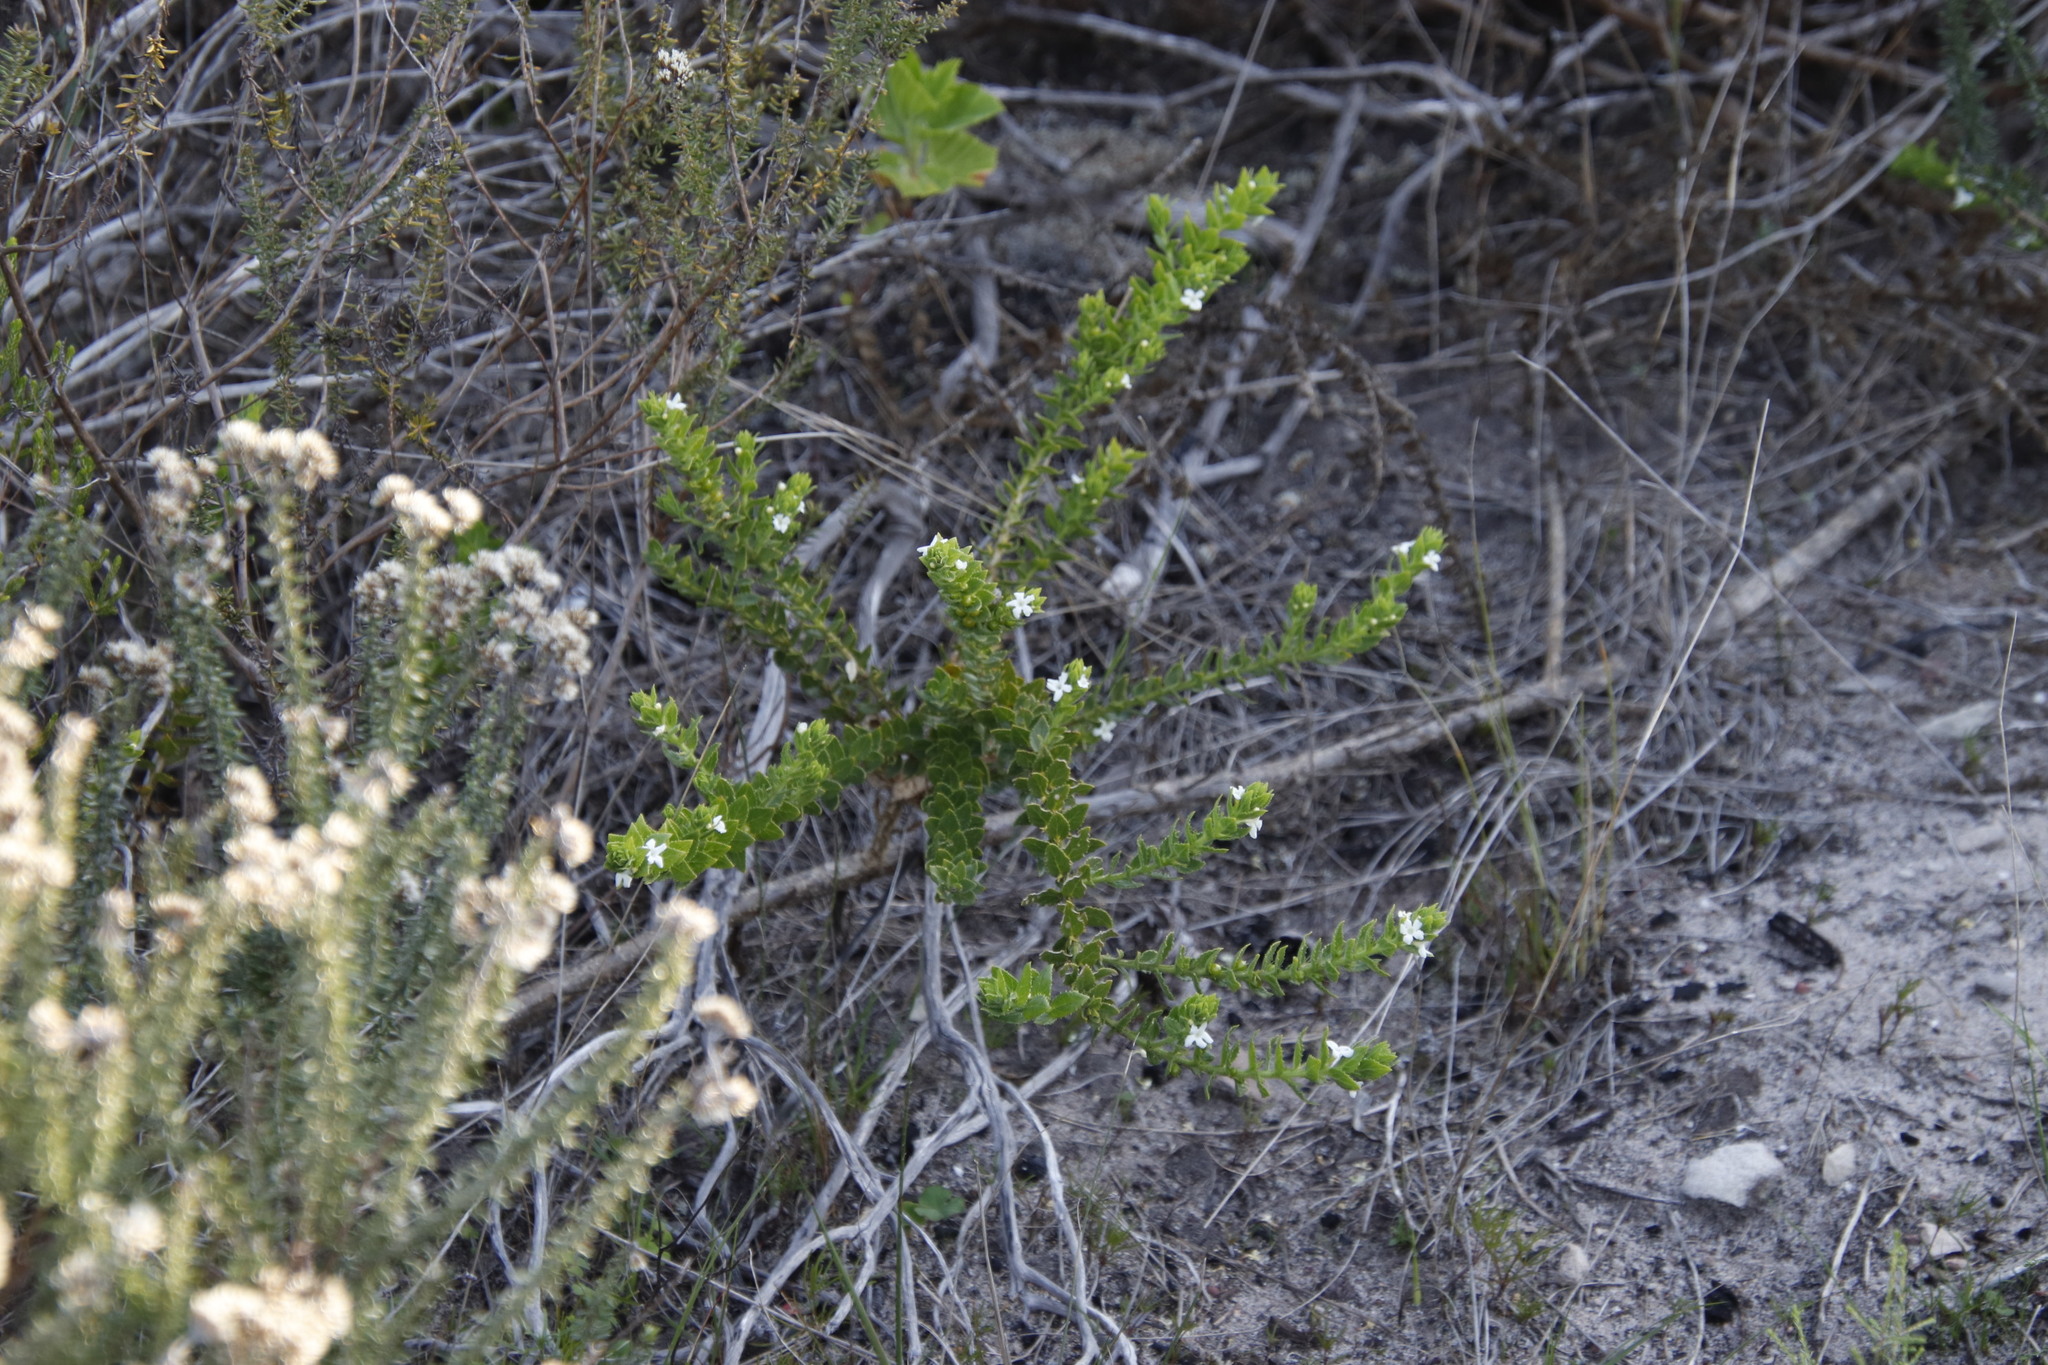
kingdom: Plantae
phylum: Tracheophyta
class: Magnoliopsida
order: Lamiales
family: Scrophulariaceae
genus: Oftia
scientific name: Oftia africana
